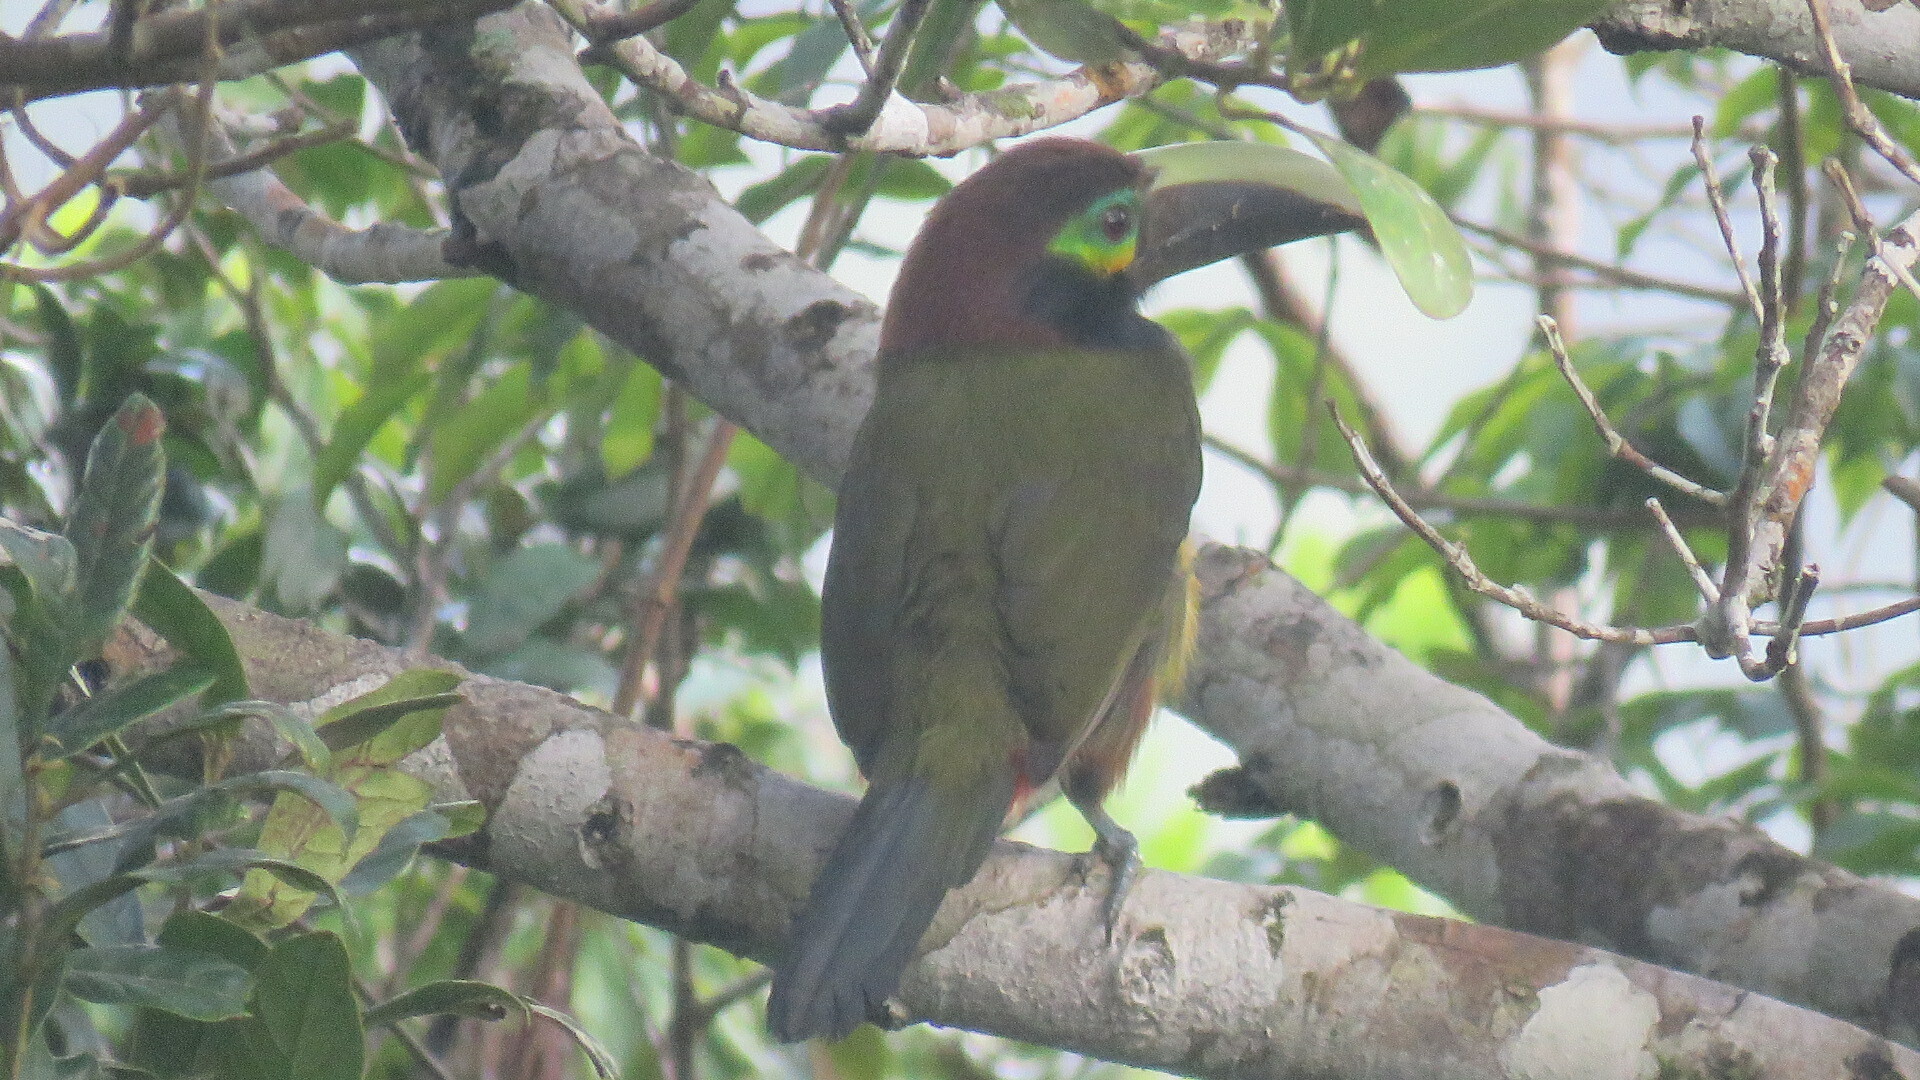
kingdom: Animalia
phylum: Chordata
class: Aves
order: Piciformes
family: Ramphastidae
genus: Selenidera
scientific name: Selenidera spectabilis
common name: Yellow-eared toucanet
